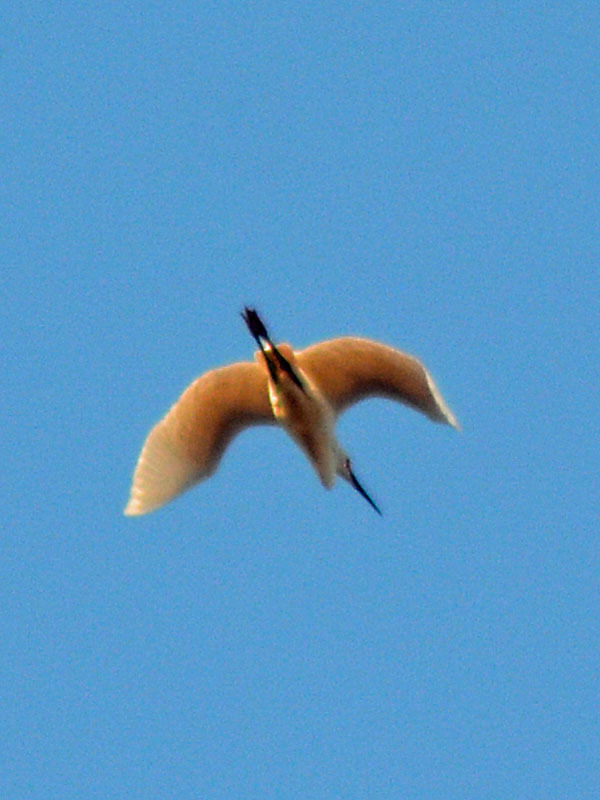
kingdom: Animalia
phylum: Chordata
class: Aves
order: Pelecaniformes
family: Ardeidae
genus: Egretta
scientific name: Egretta thula
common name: Snowy egret
